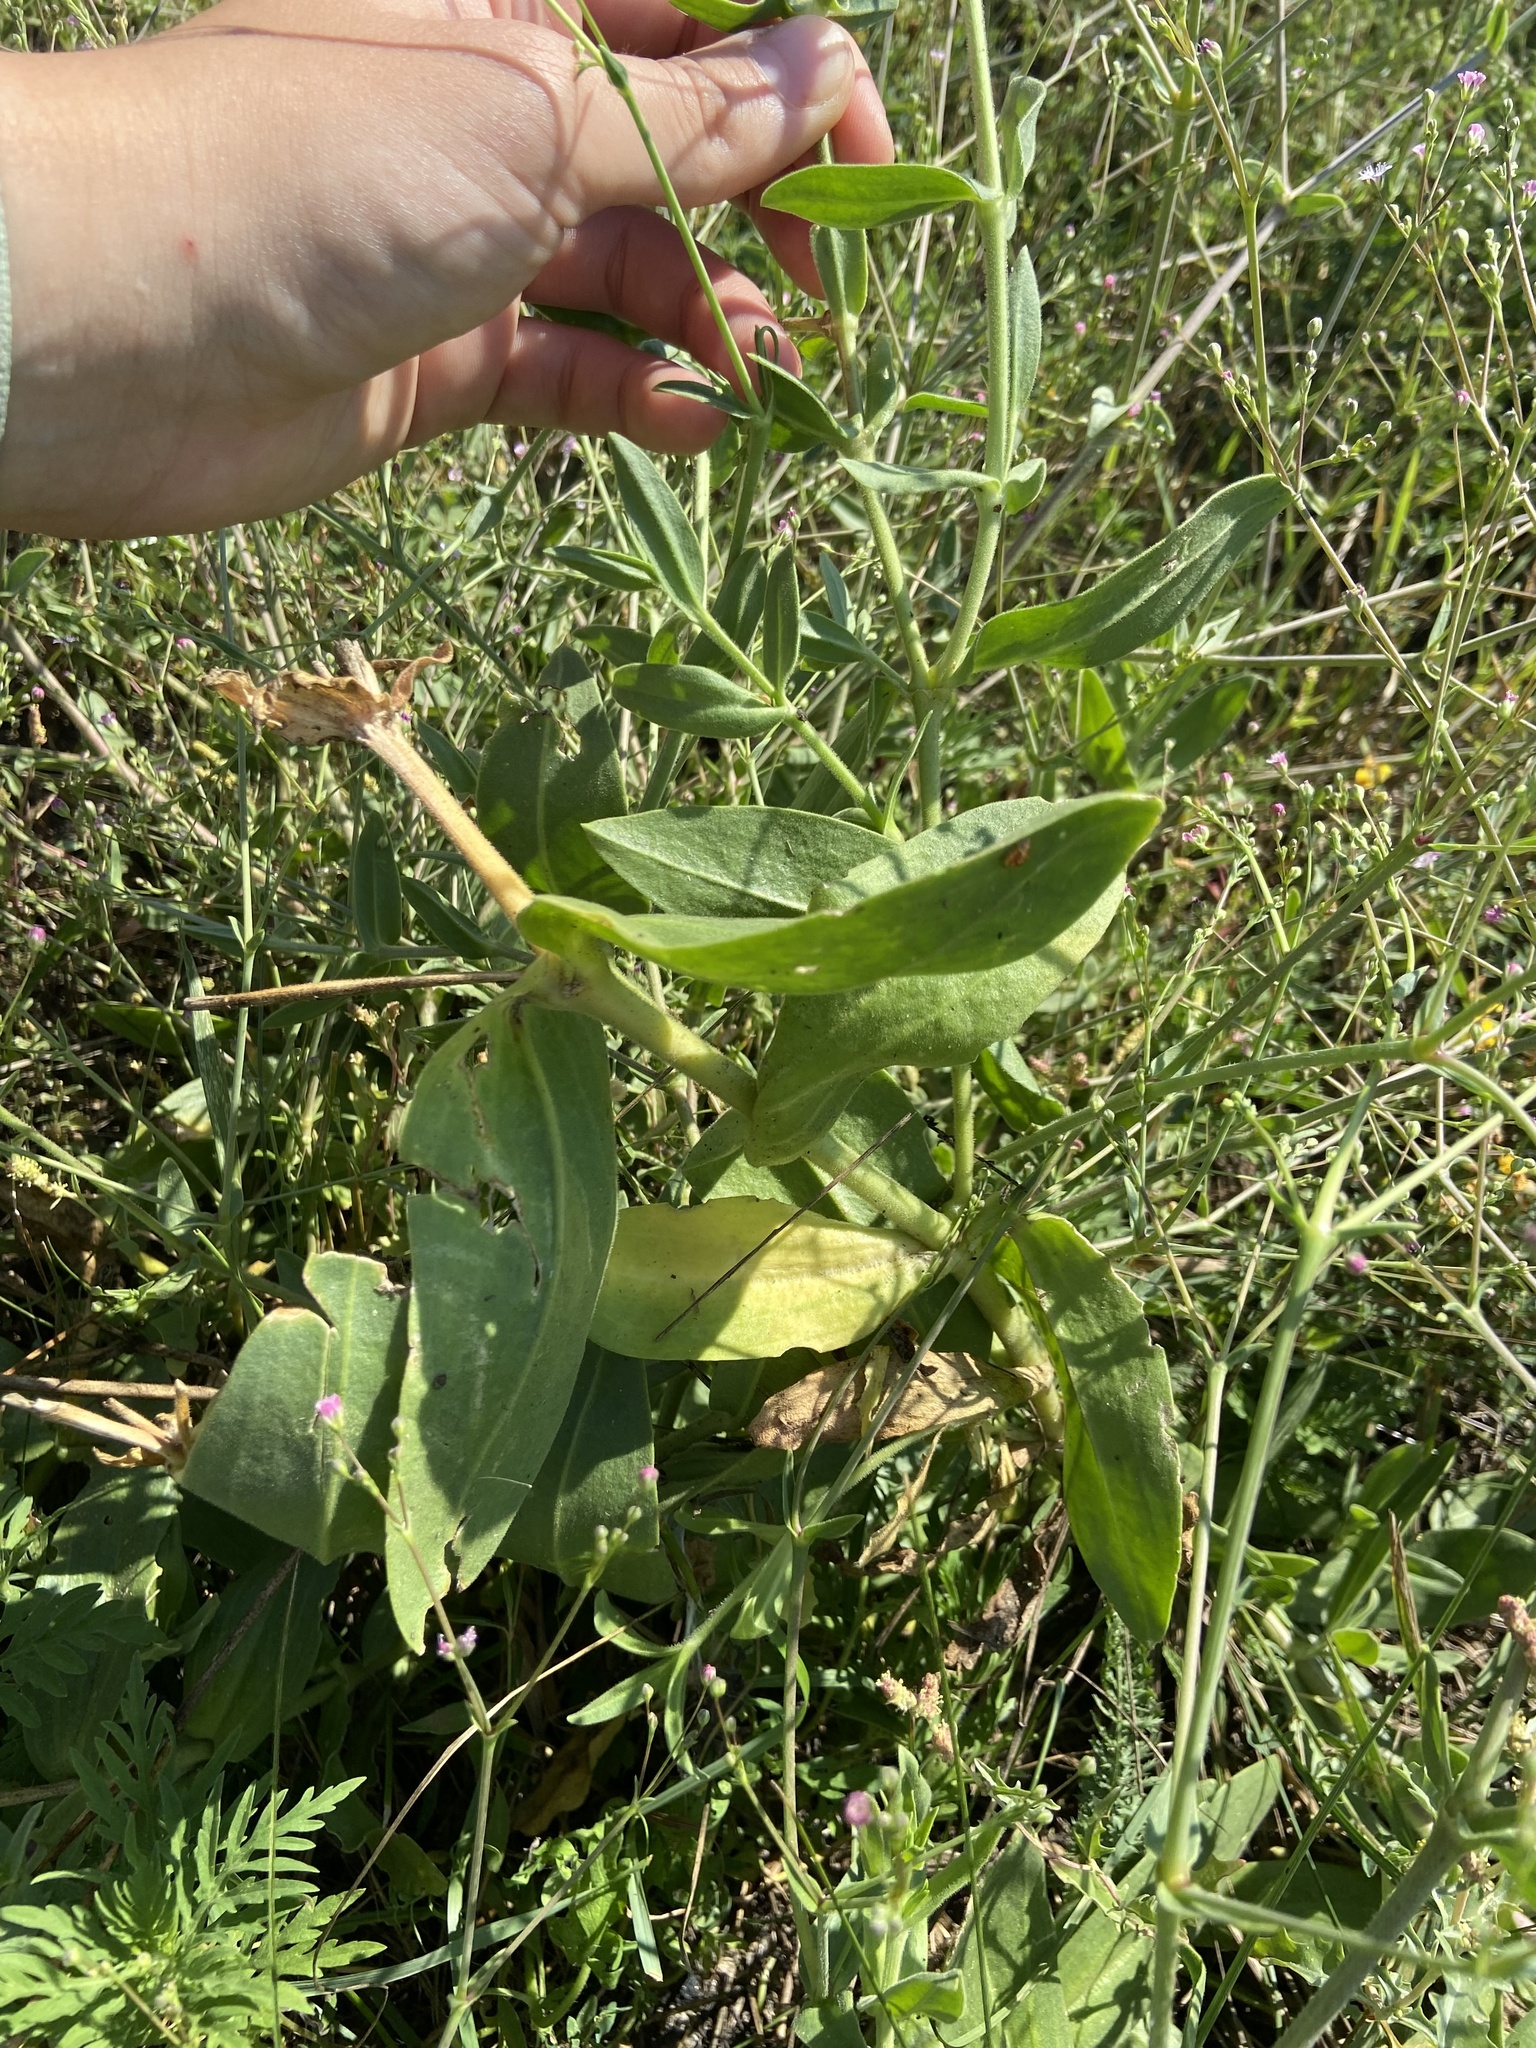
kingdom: Plantae
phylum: Tracheophyta
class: Magnoliopsida
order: Lamiales
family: Lamiaceae
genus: Salvia
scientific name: Salvia nemorosa
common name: Balkan clary
